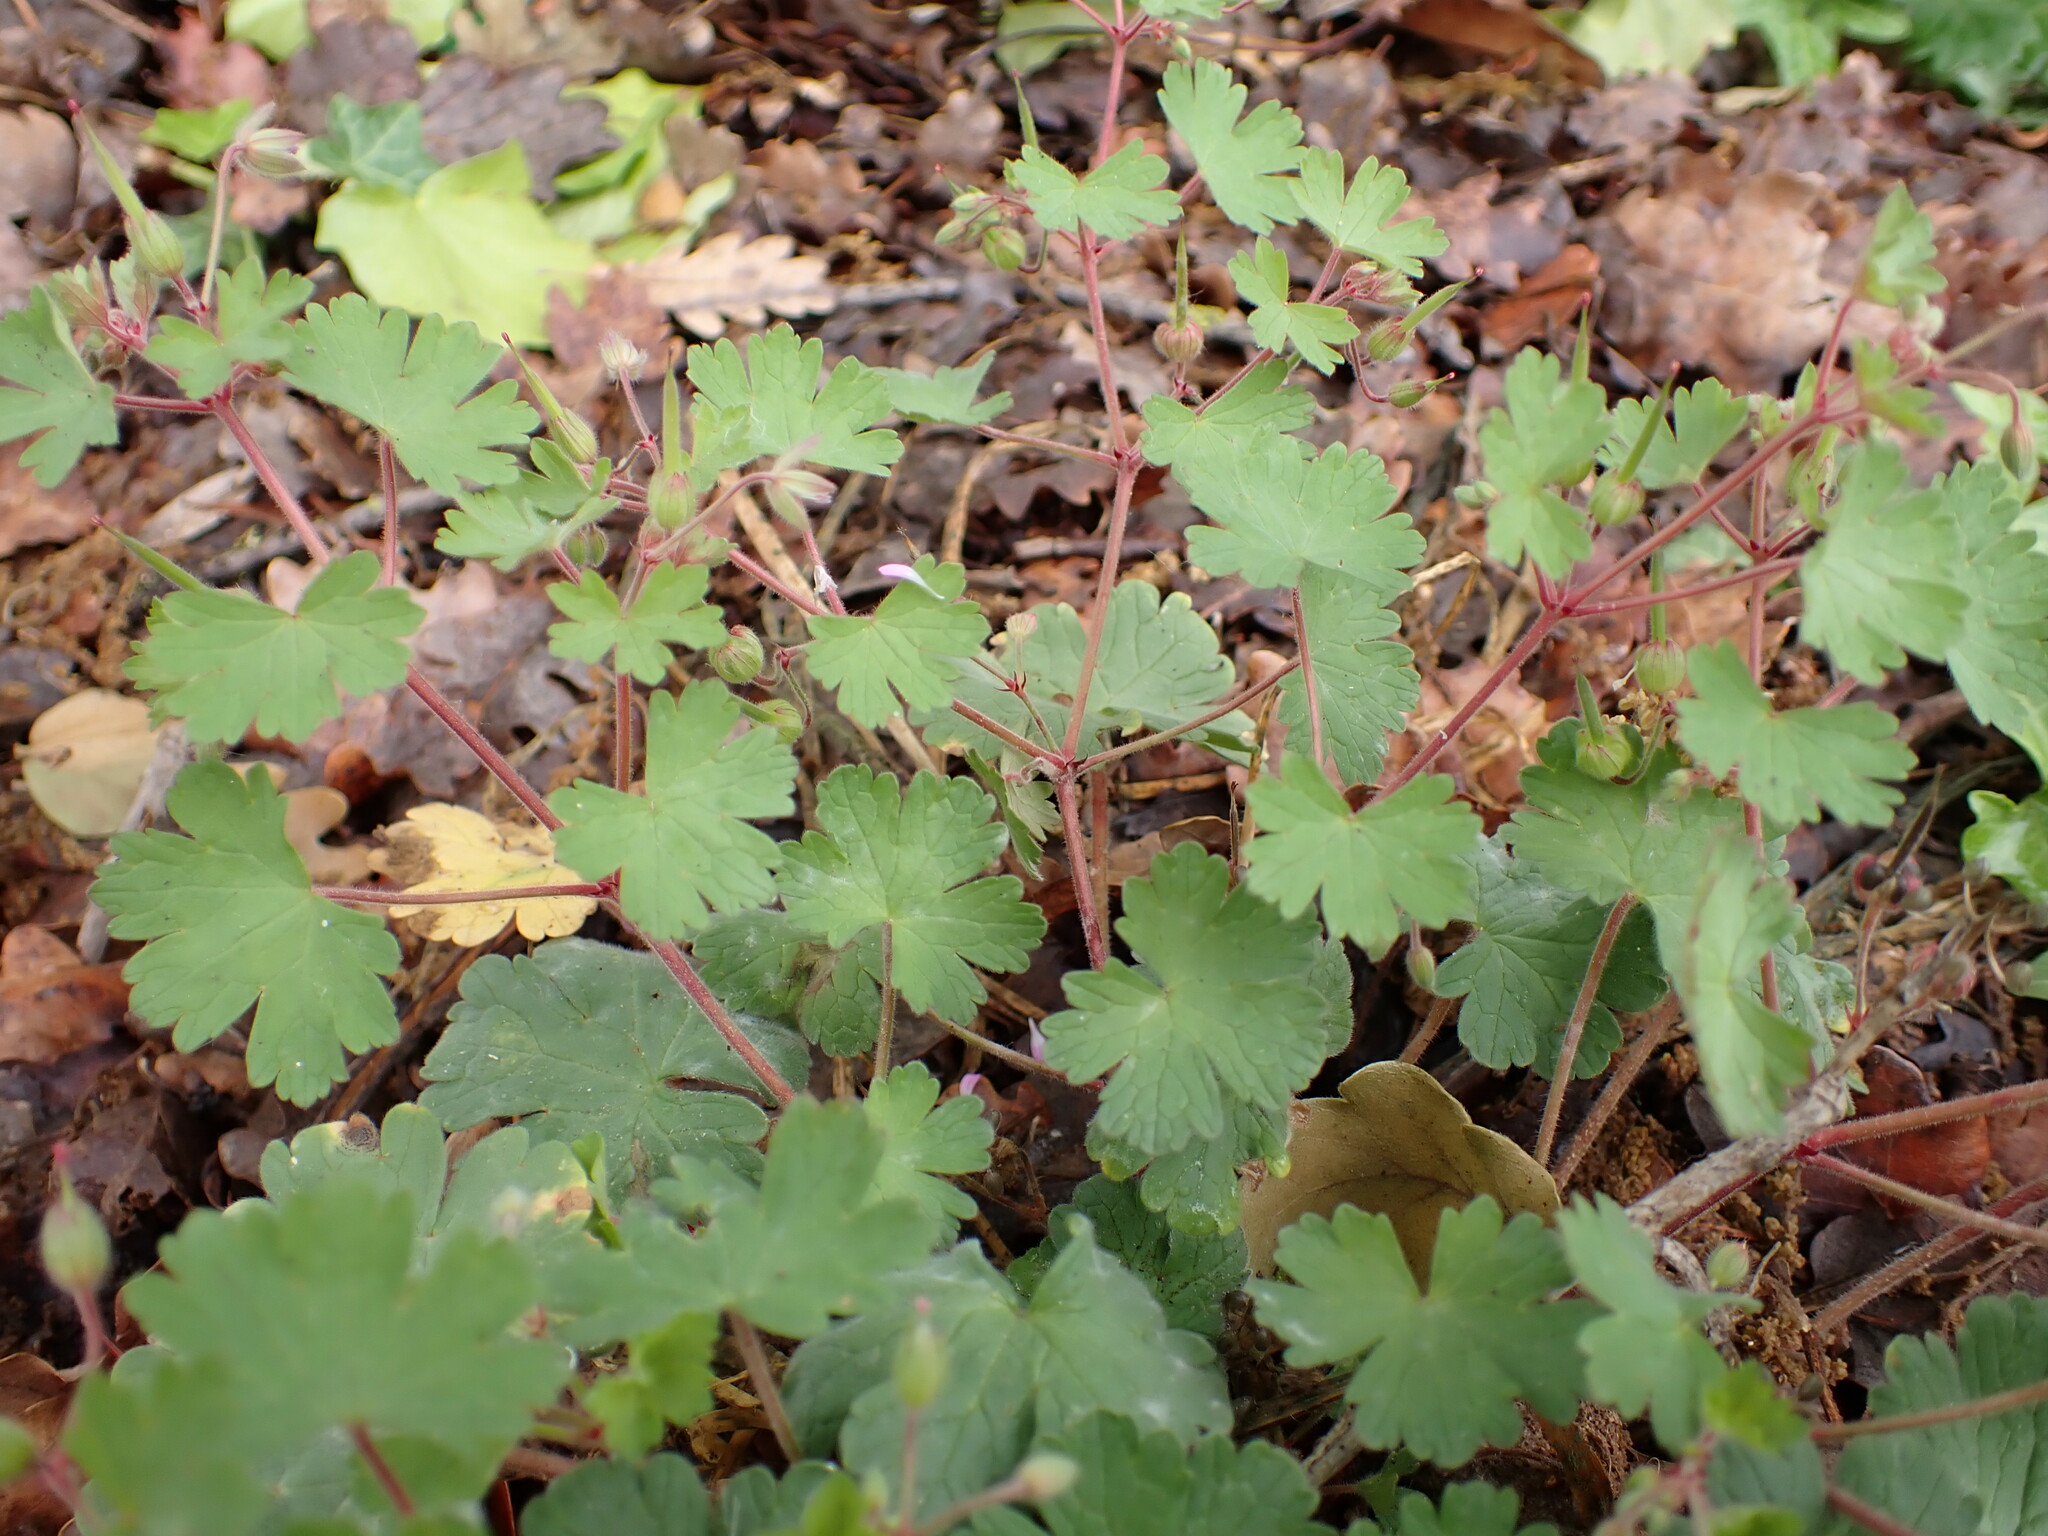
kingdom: Plantae
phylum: Tracheophyta
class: Magnoliopsida
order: Geraniales
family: Geraniaceae
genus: Geranium
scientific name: Geranium rotundifolium
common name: Round-leaved crane's-bill
